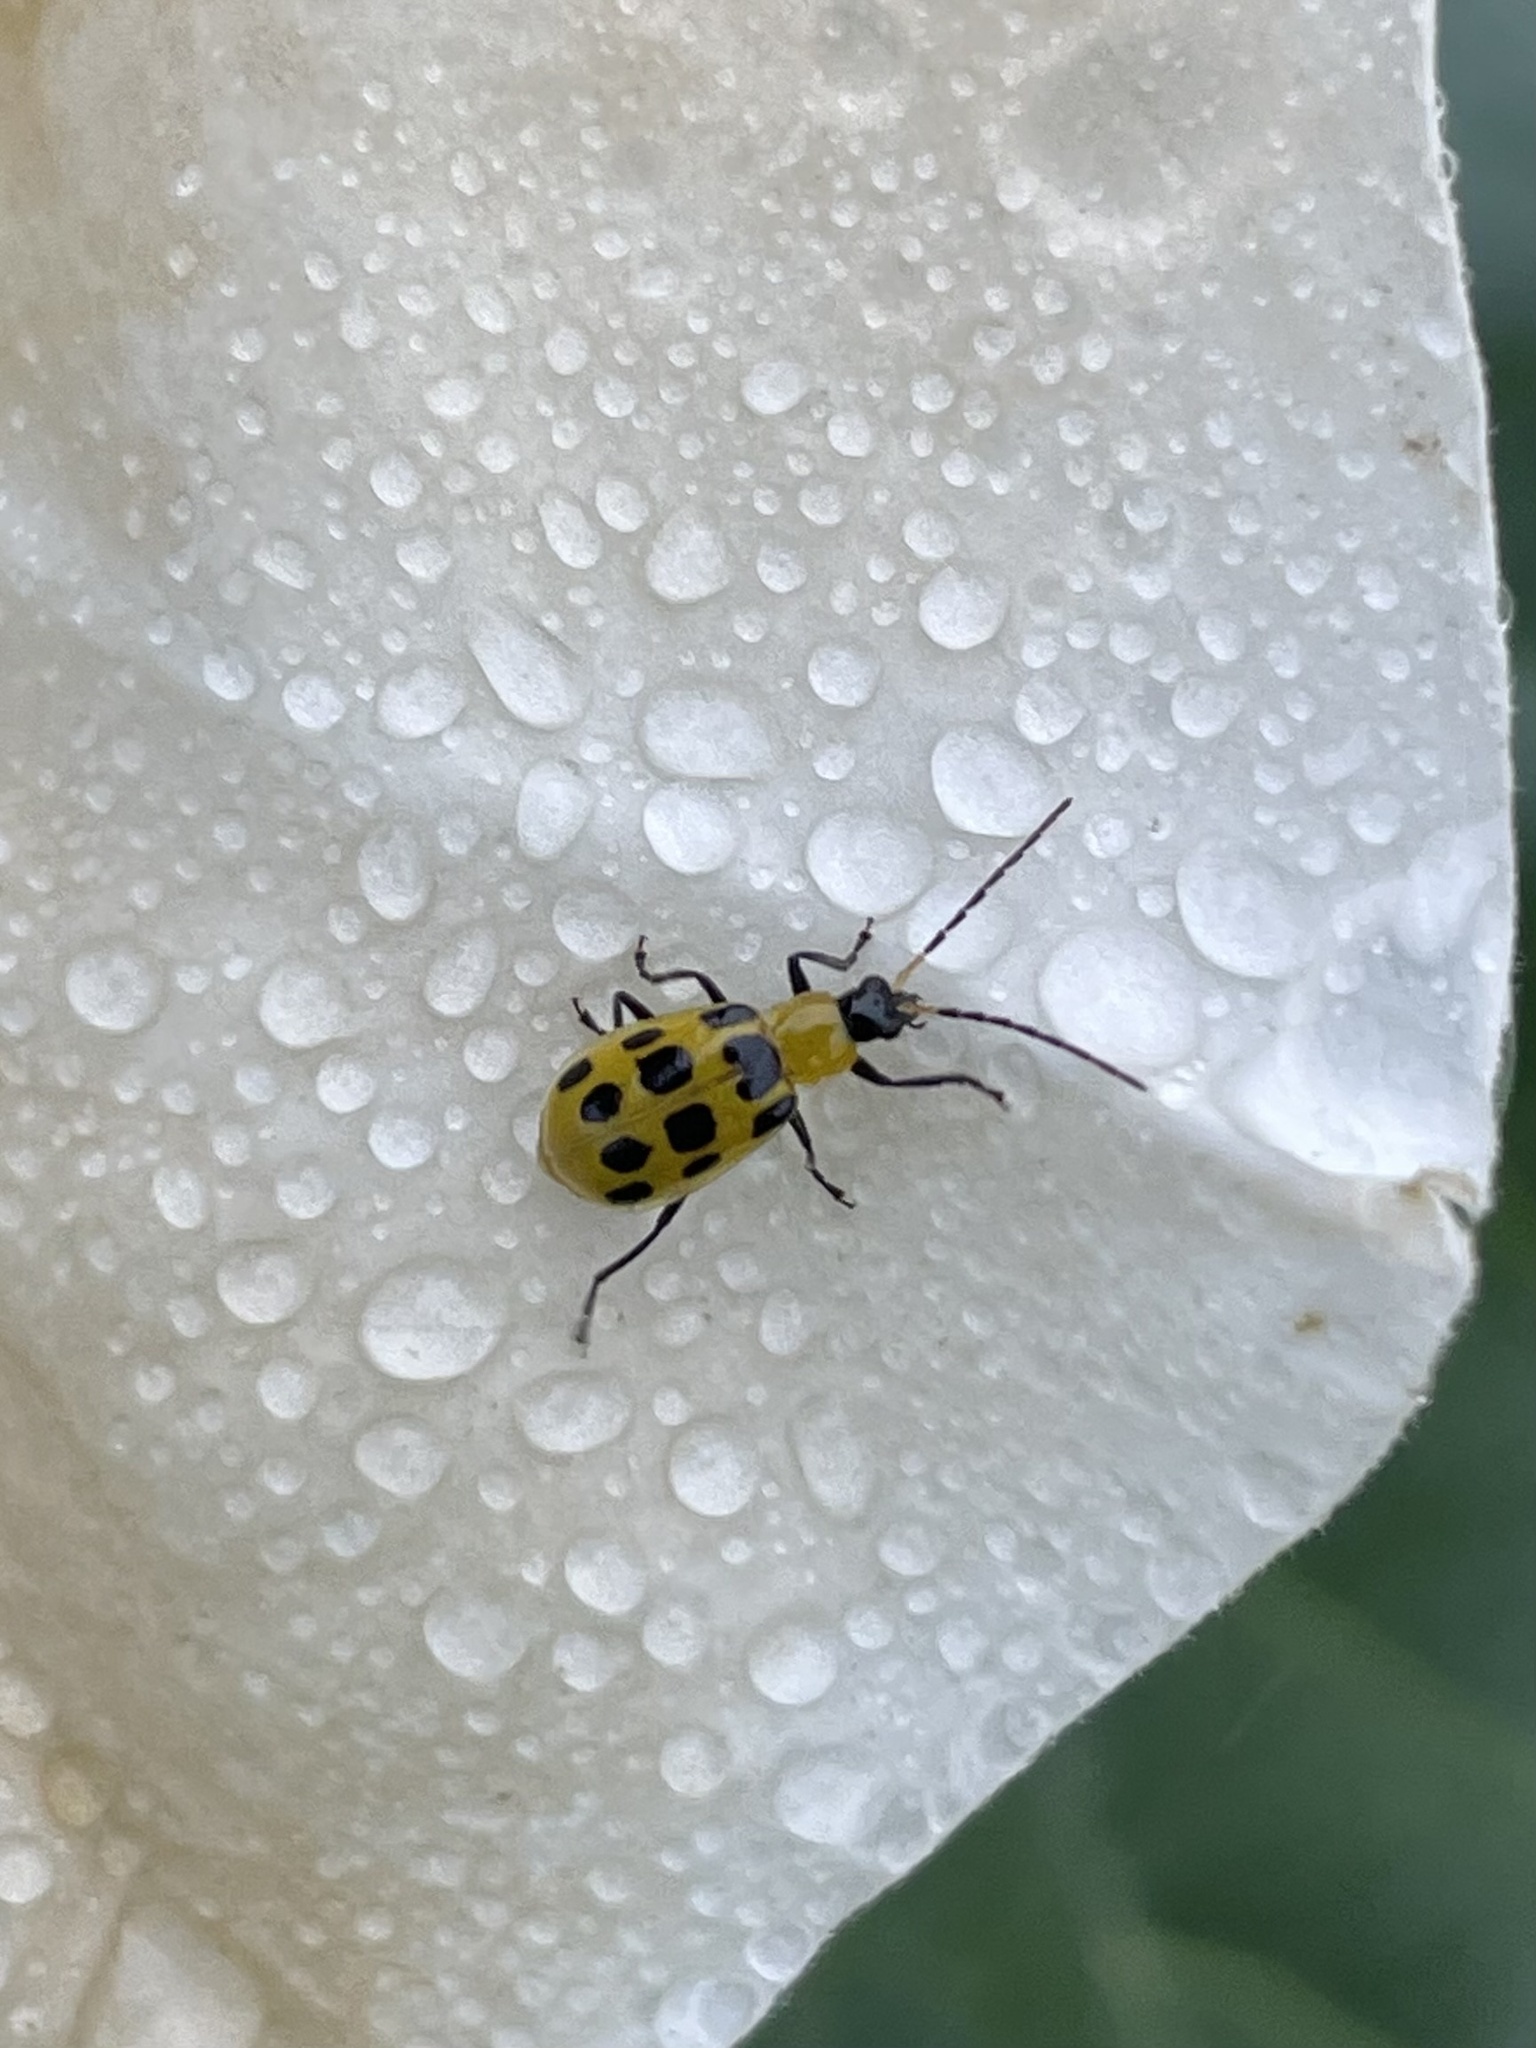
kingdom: Animalia
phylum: Arthropoda
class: Insecta
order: Coleoptera
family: Chrysomelidae
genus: Diabrotica
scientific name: Diabrotica undecimpunctata
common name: Spotted cucumber beetle
